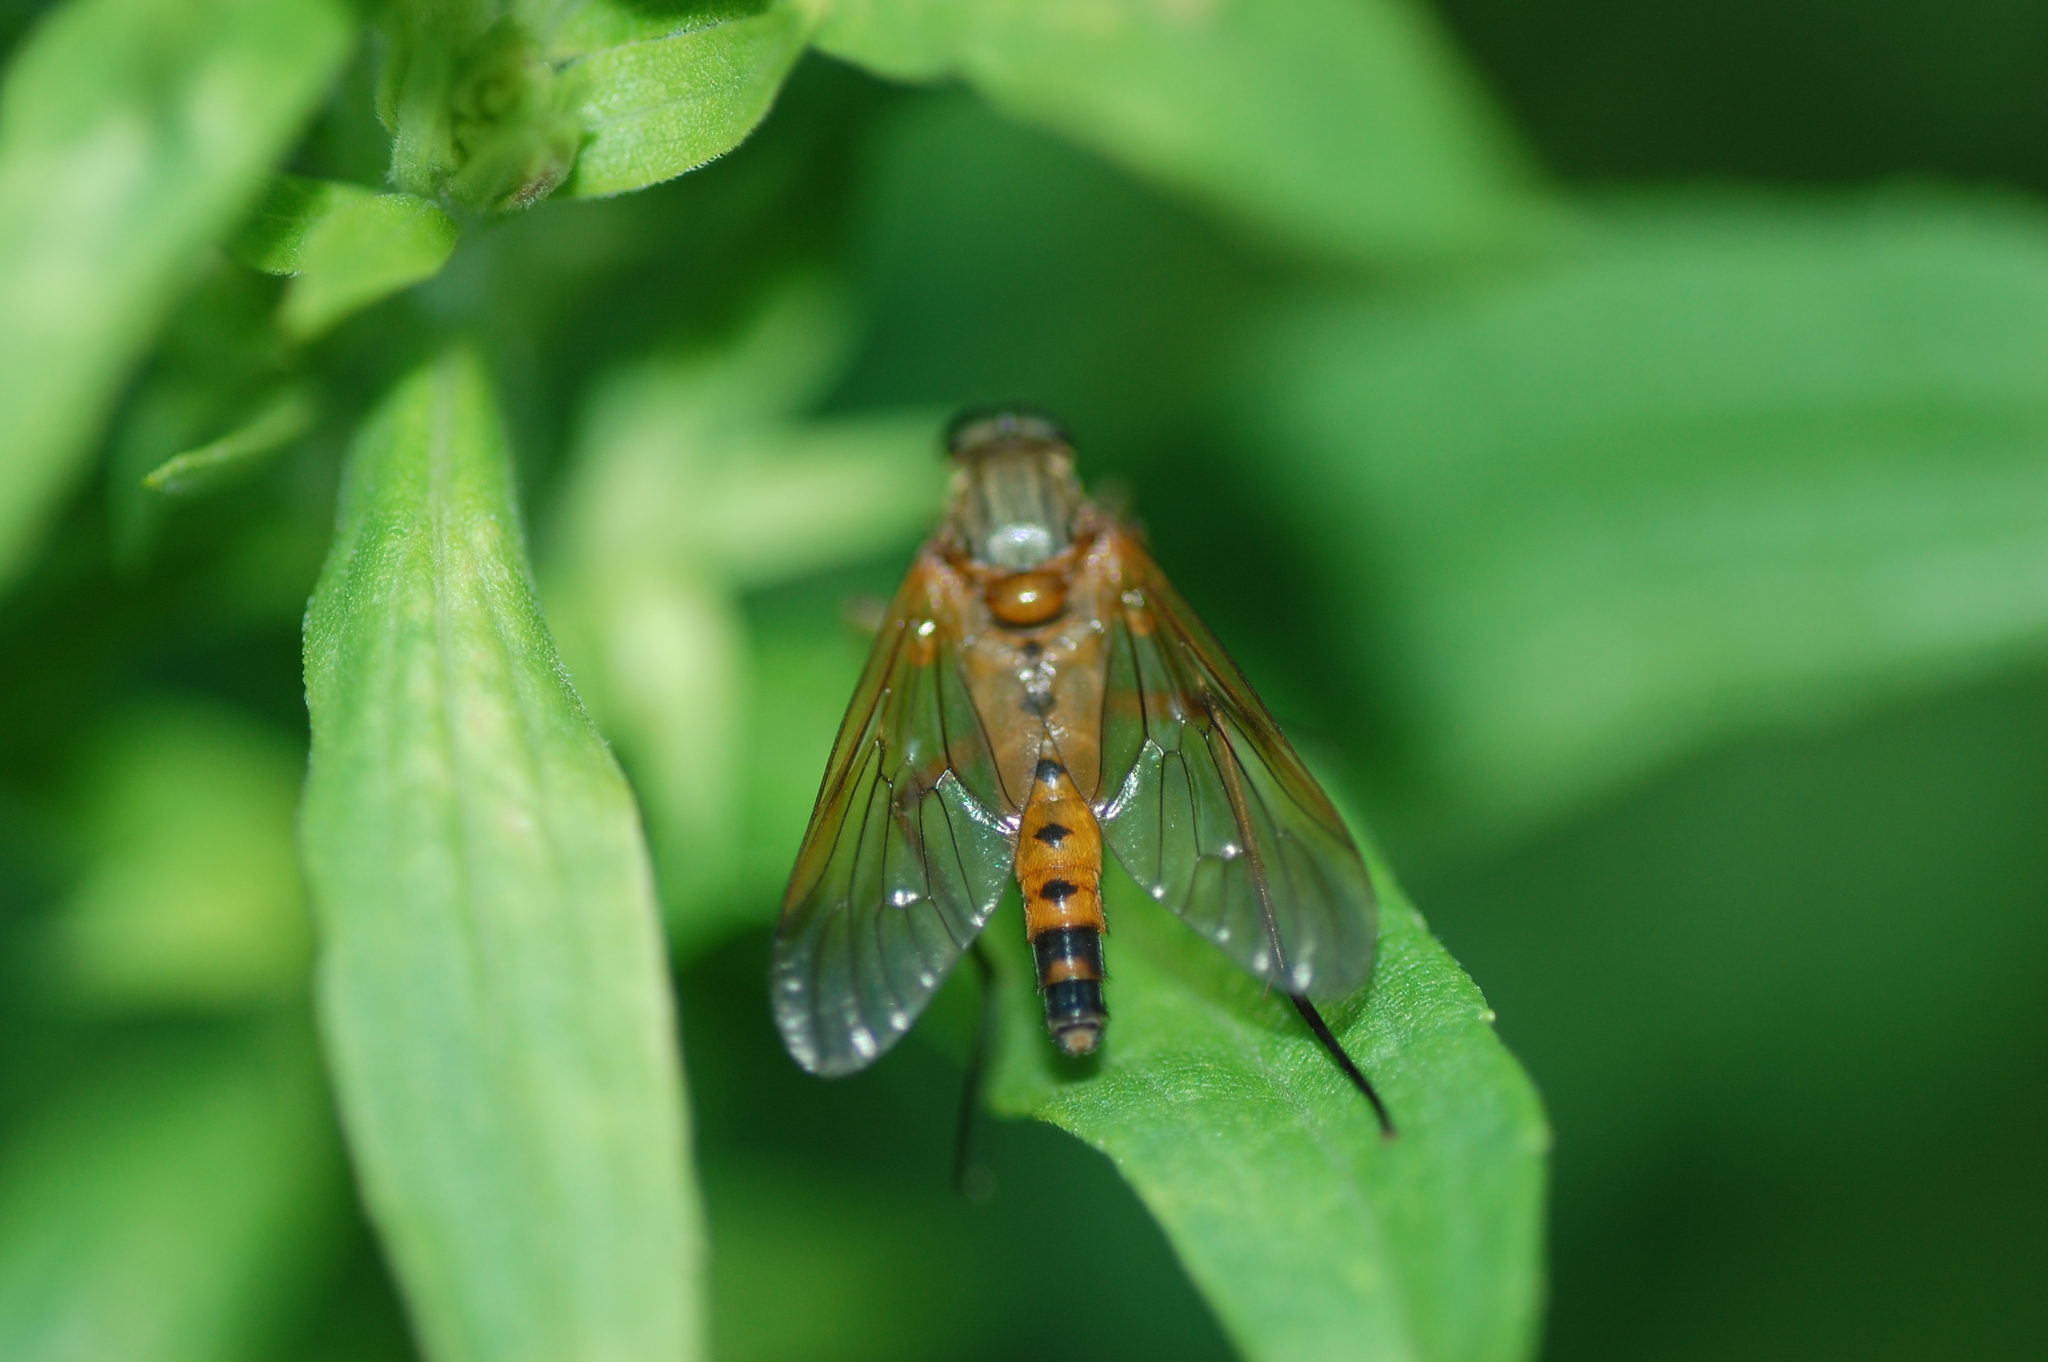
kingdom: Animalia
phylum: Arthropoda
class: Insecta
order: Diptera
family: Rhagionidae
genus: Rhagio
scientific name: Rhagio tringaria
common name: Marsh snipefly
